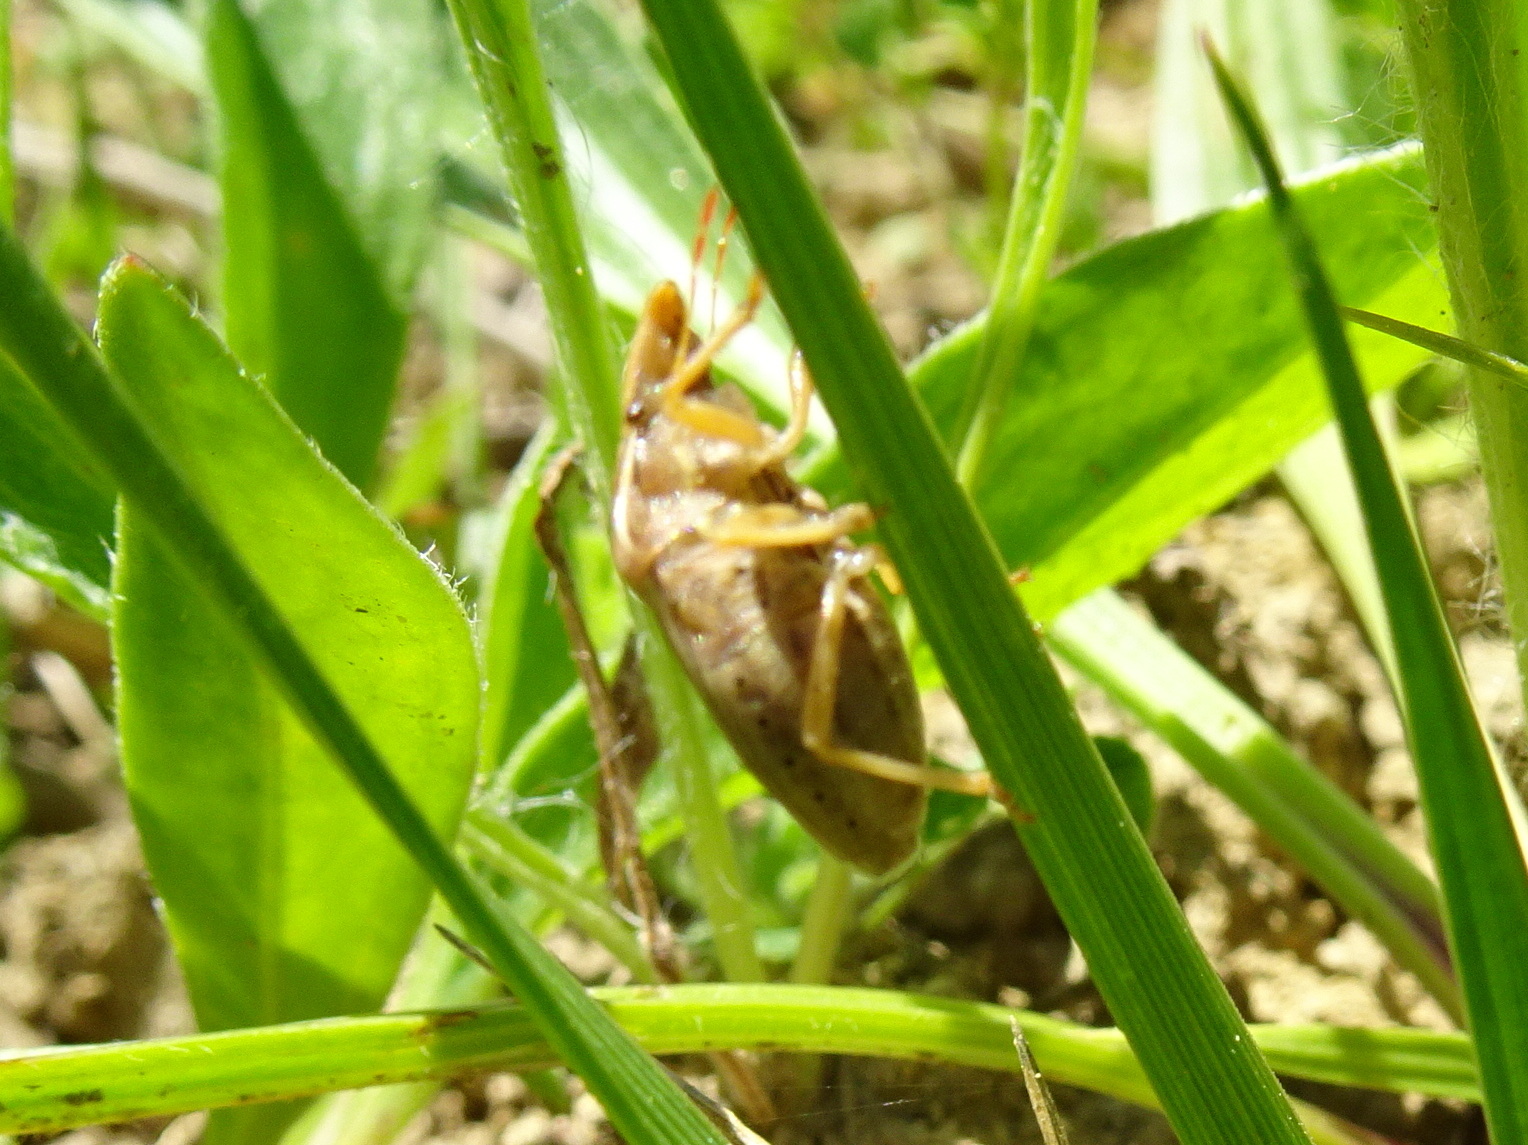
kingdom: Animalia
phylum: Arthropoda
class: Insecta
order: Hemiptera
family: Pentatomidae
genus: Aelia
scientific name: Aelia rostrata
